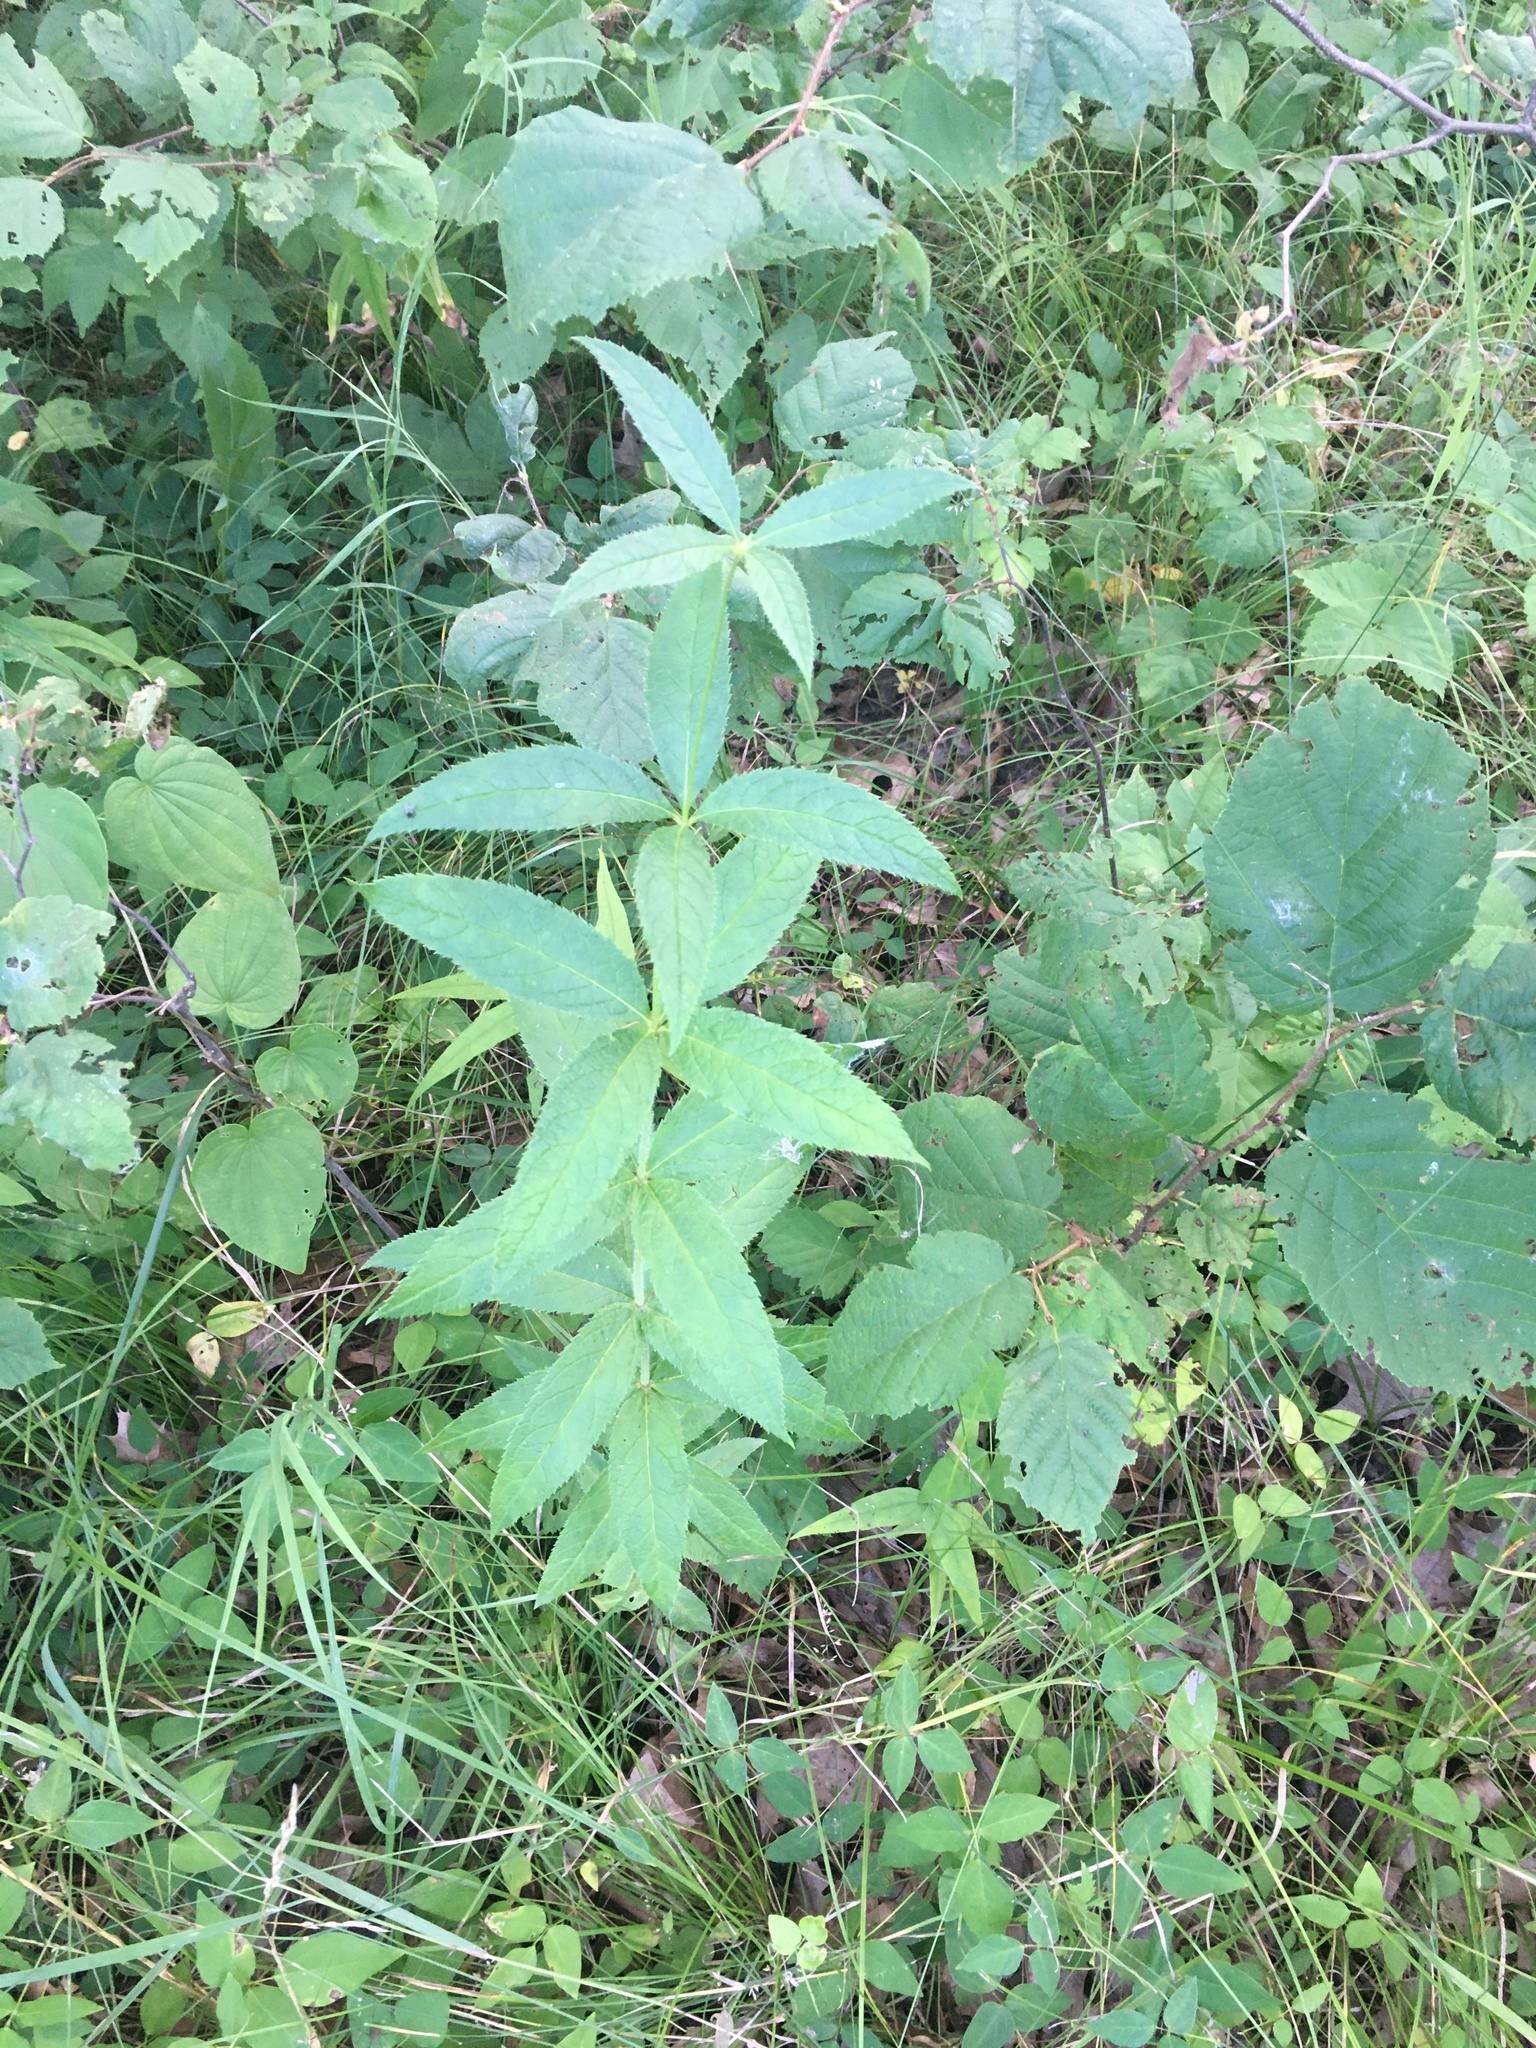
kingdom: Plantae
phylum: Tracheophyta
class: Magnoliopsida
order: Lamiales
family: Plantaginaceae
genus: Veronicastrum
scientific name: Veronicastrum virginicum
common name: Blackroot
